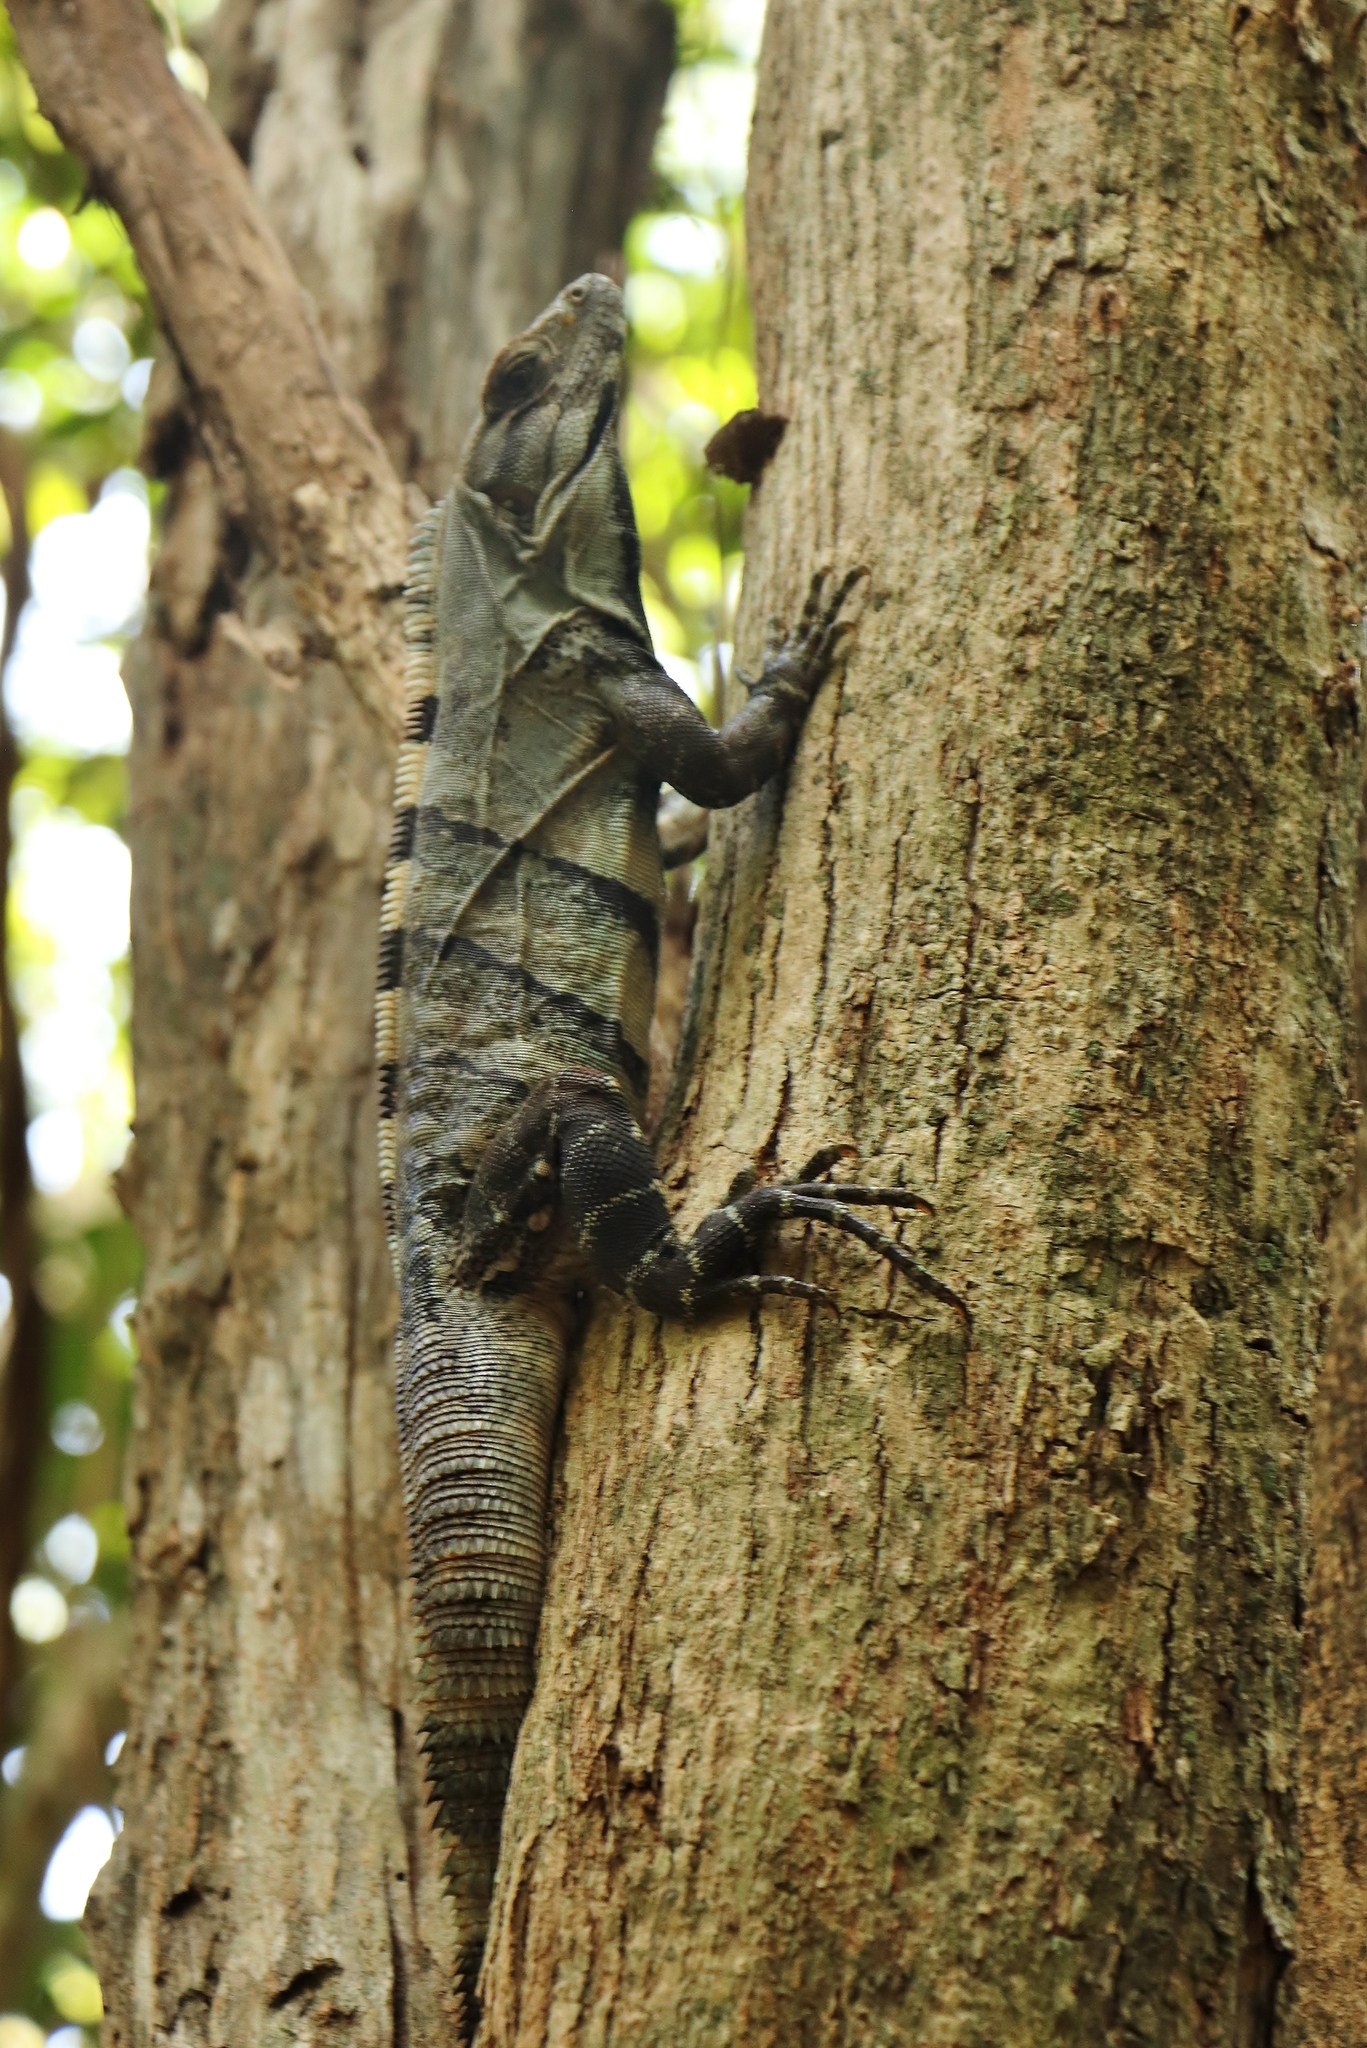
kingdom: Animalia
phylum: Chordata
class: Squamata
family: Iguanidae
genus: Ctenosaura
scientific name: Ctenosaura similis
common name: Black spiny-tailed iguana
